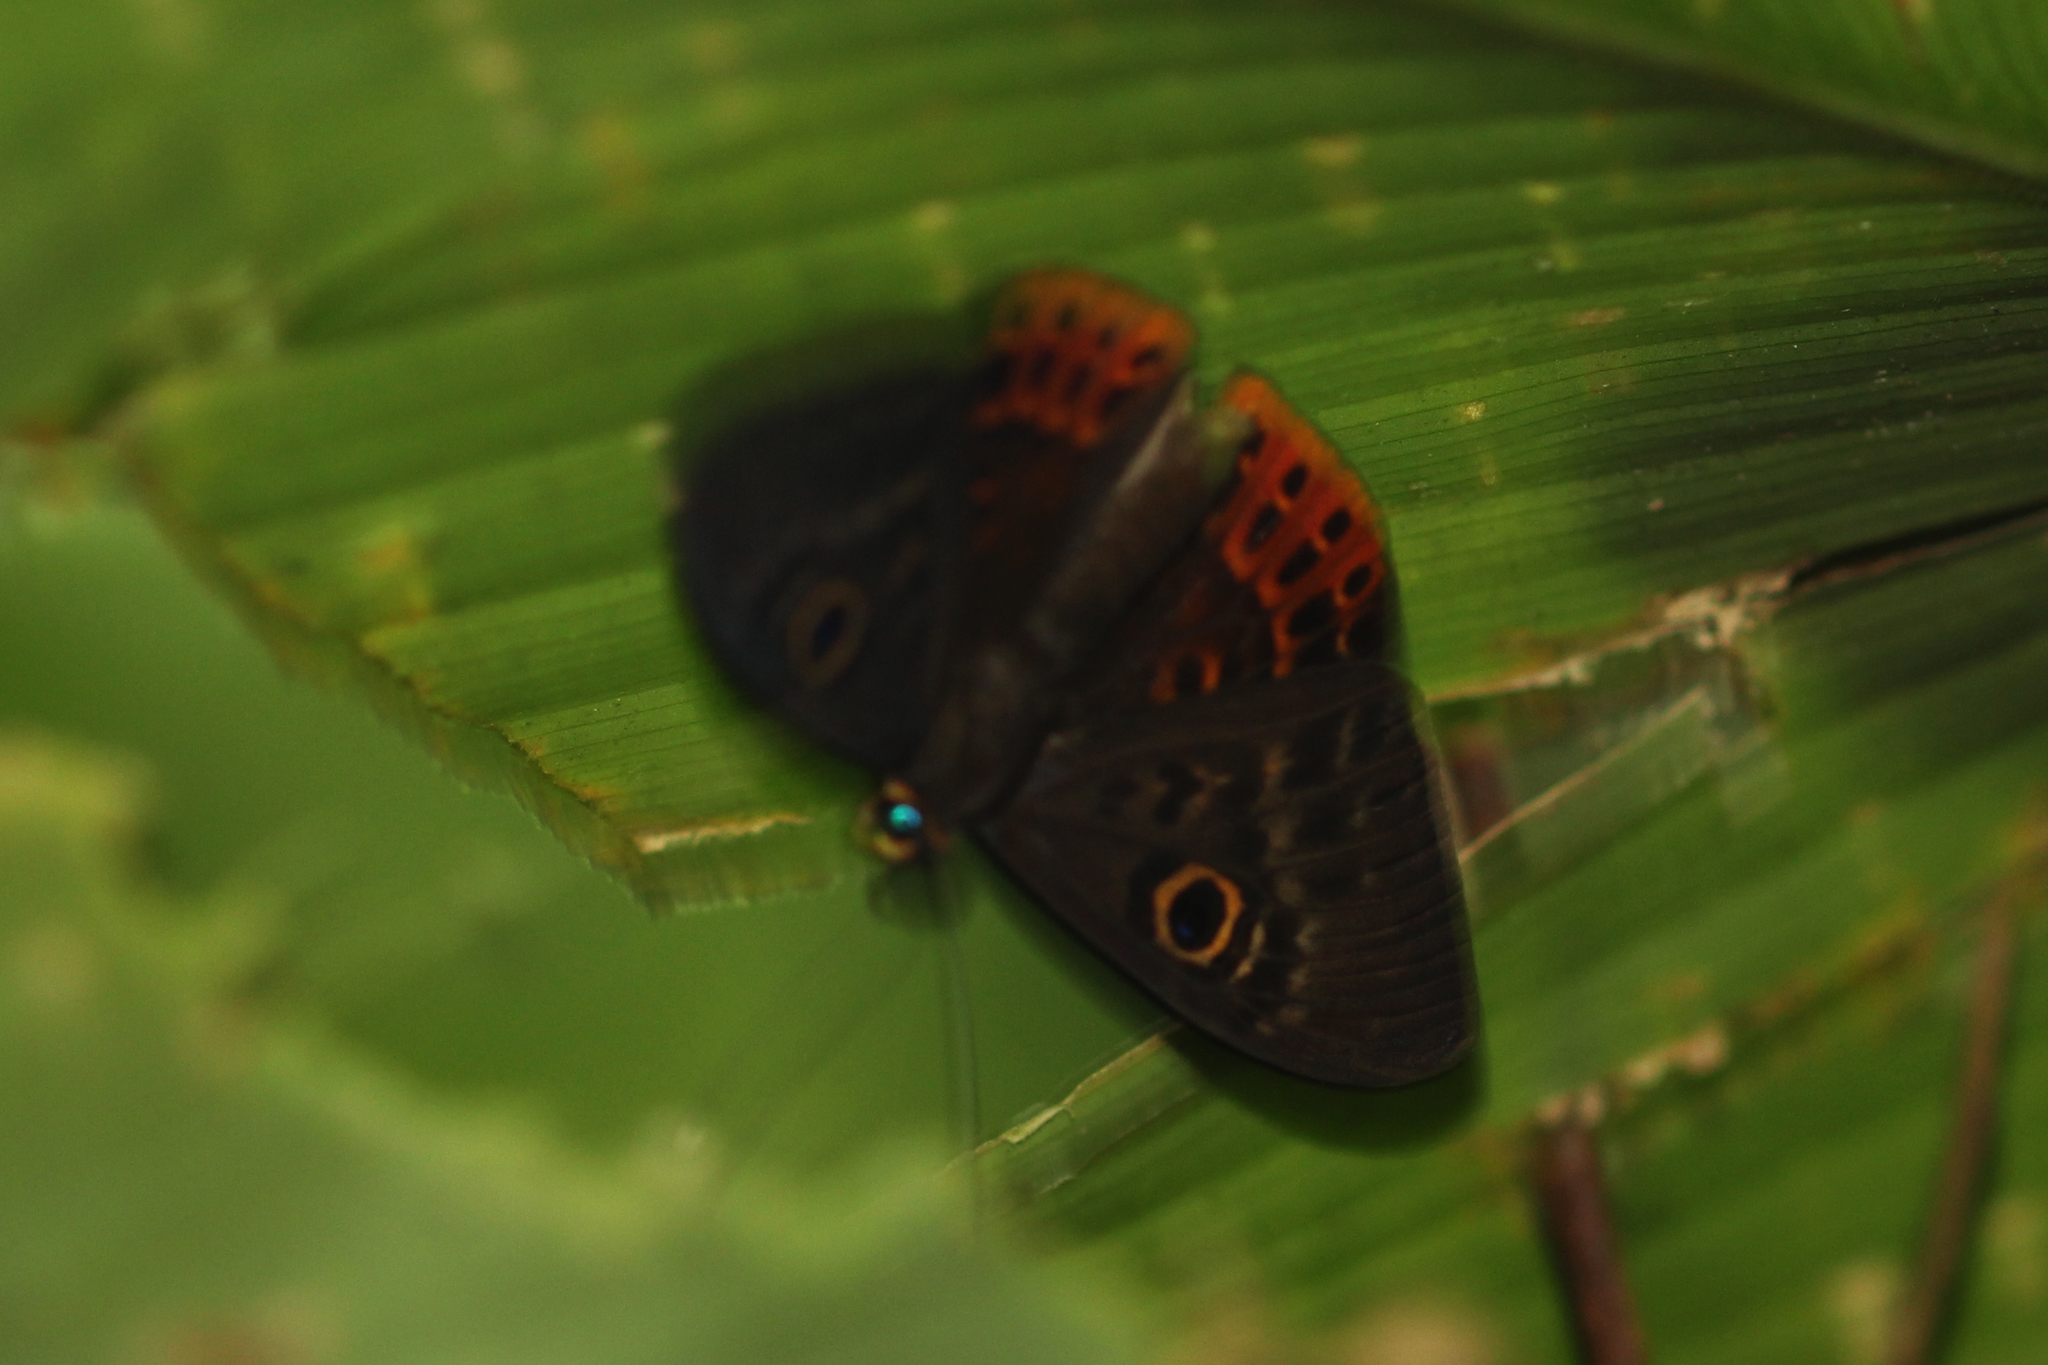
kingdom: Animalia
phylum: Cnidaria
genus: Eurybia
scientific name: Eurybia patrona
